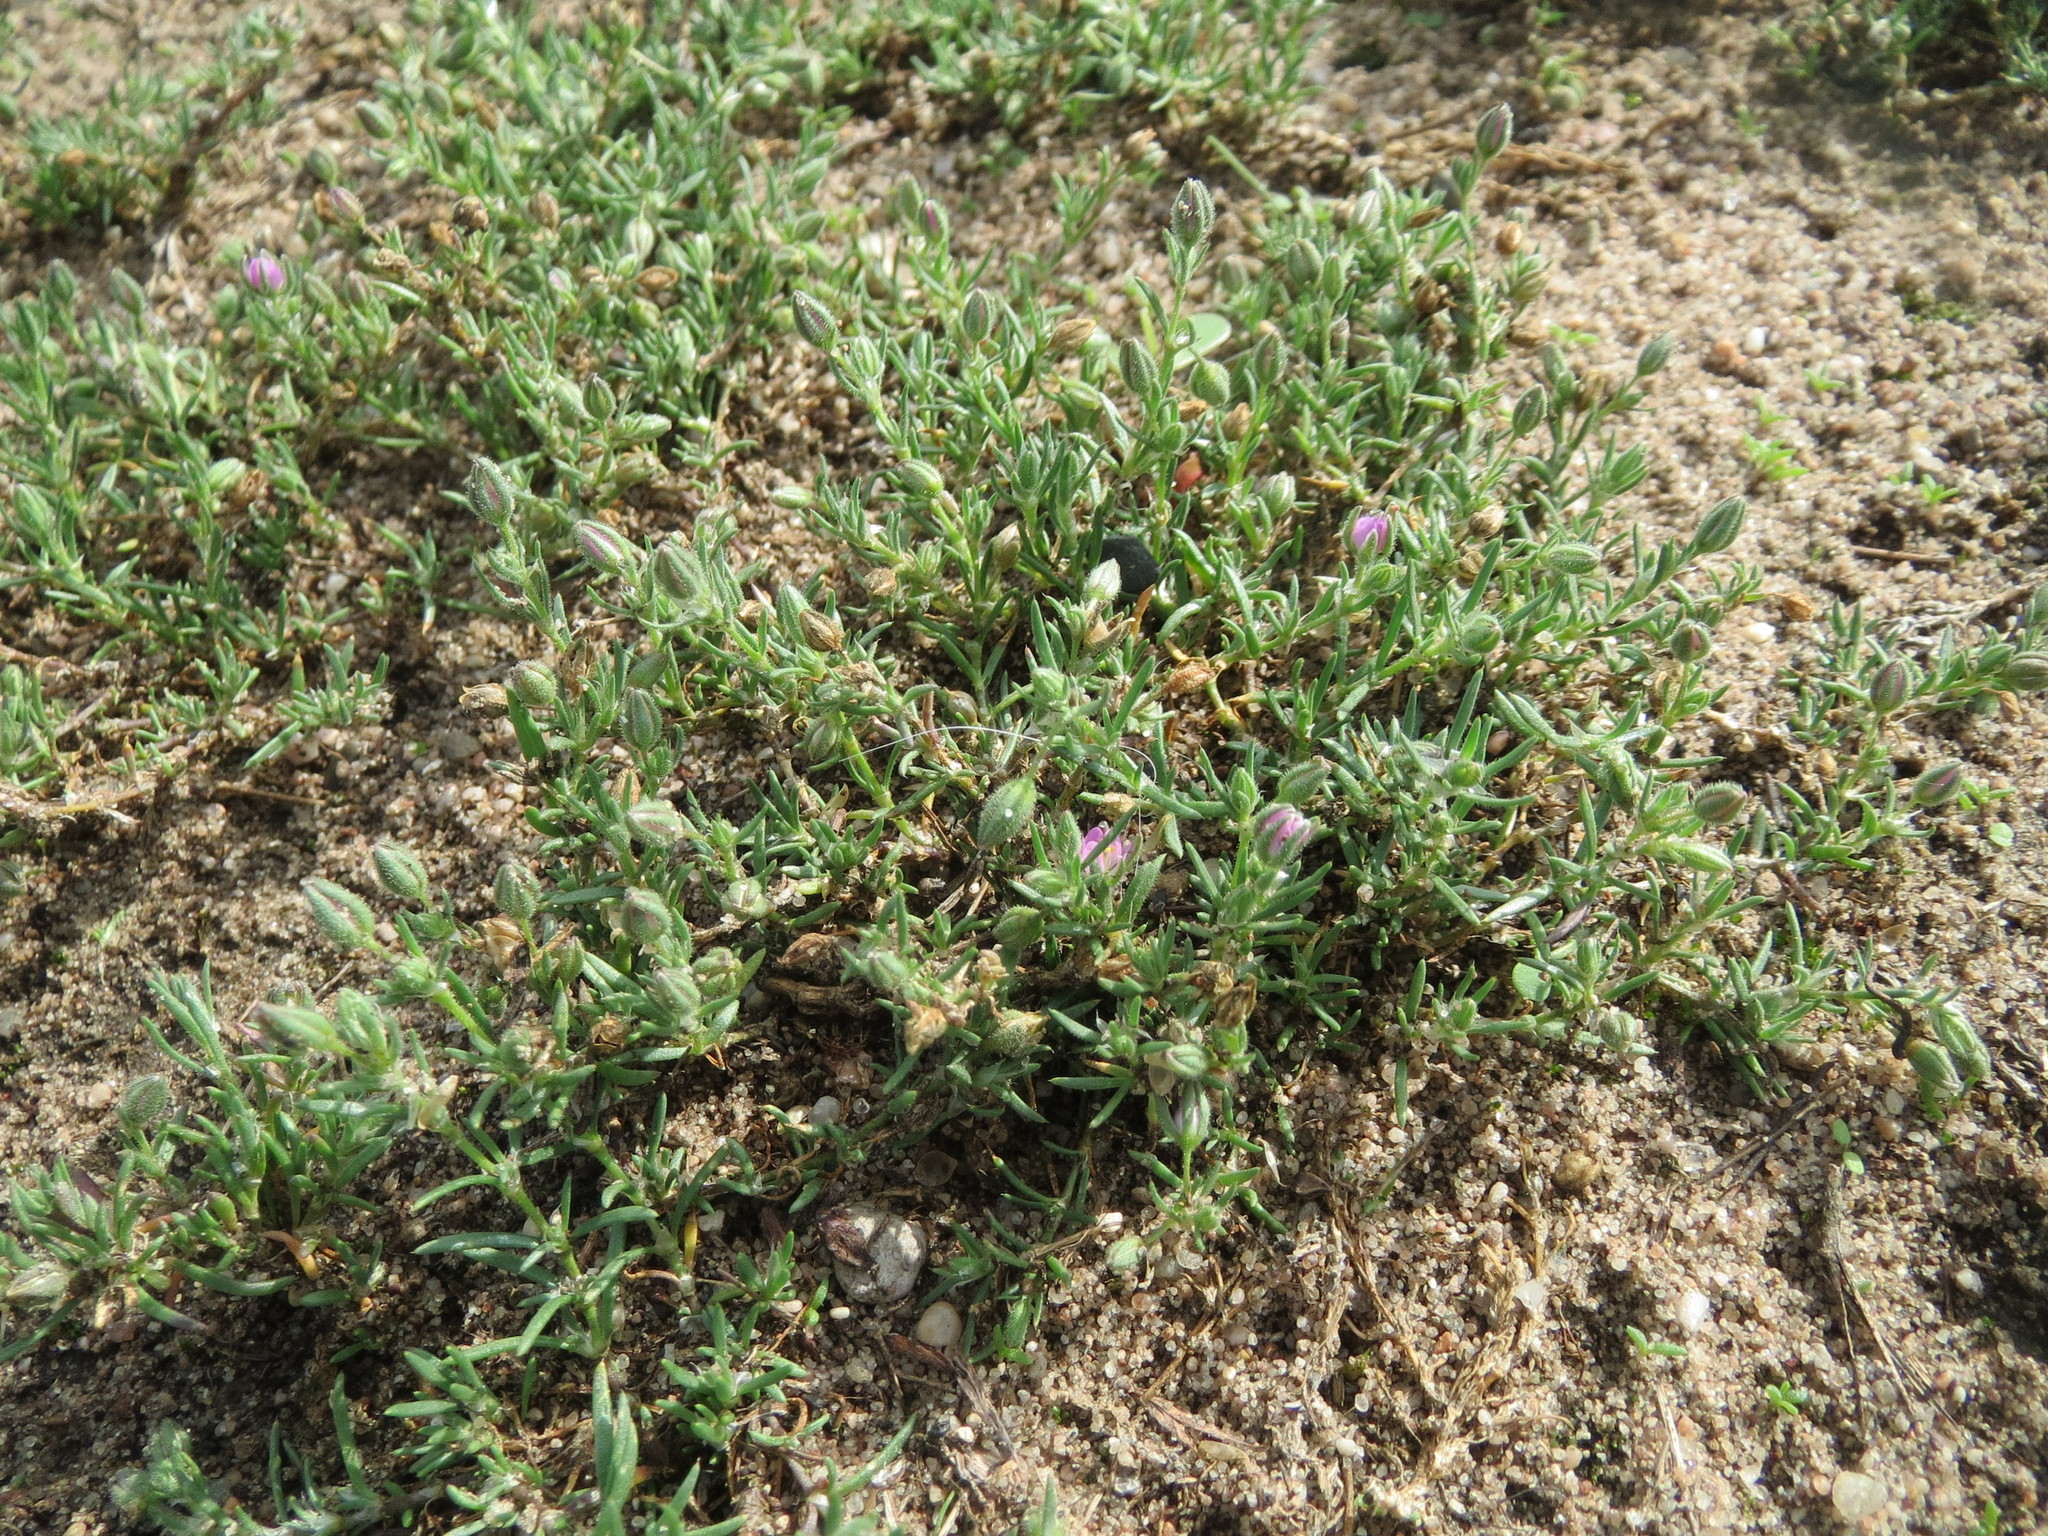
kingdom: Plantae
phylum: Tracheophyta
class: Magnoliopsida
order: Caryophyllales
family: Caryophyllaceae
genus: Spergularia
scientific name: Spergularia rubra
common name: Red sand-spurrey
